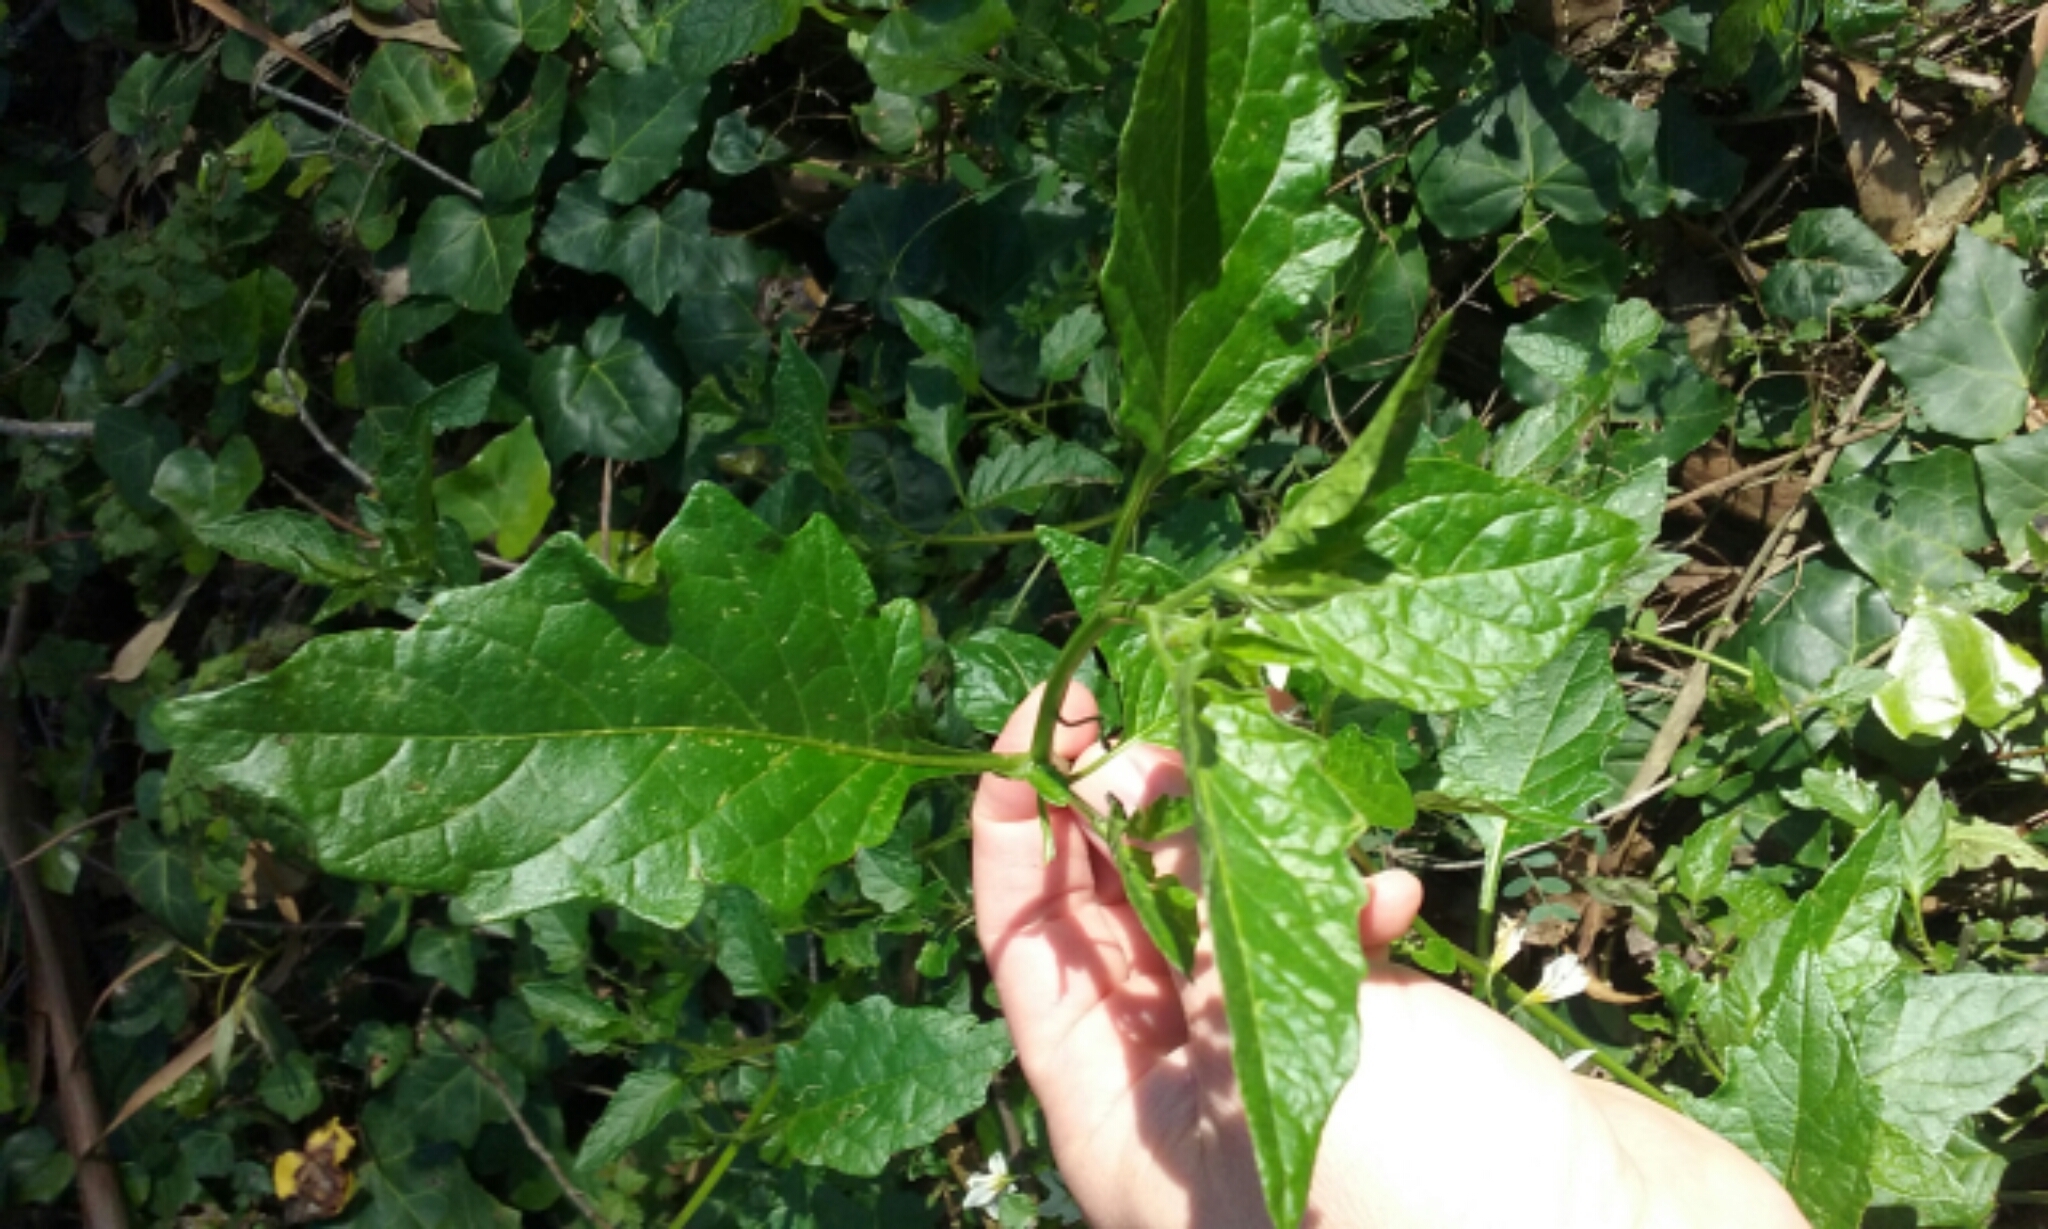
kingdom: Plantae
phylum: Tracheophyta
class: Magnoliopsida
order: Solanales
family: Solanaceae
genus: Solanum
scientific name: Solanum furcatum
